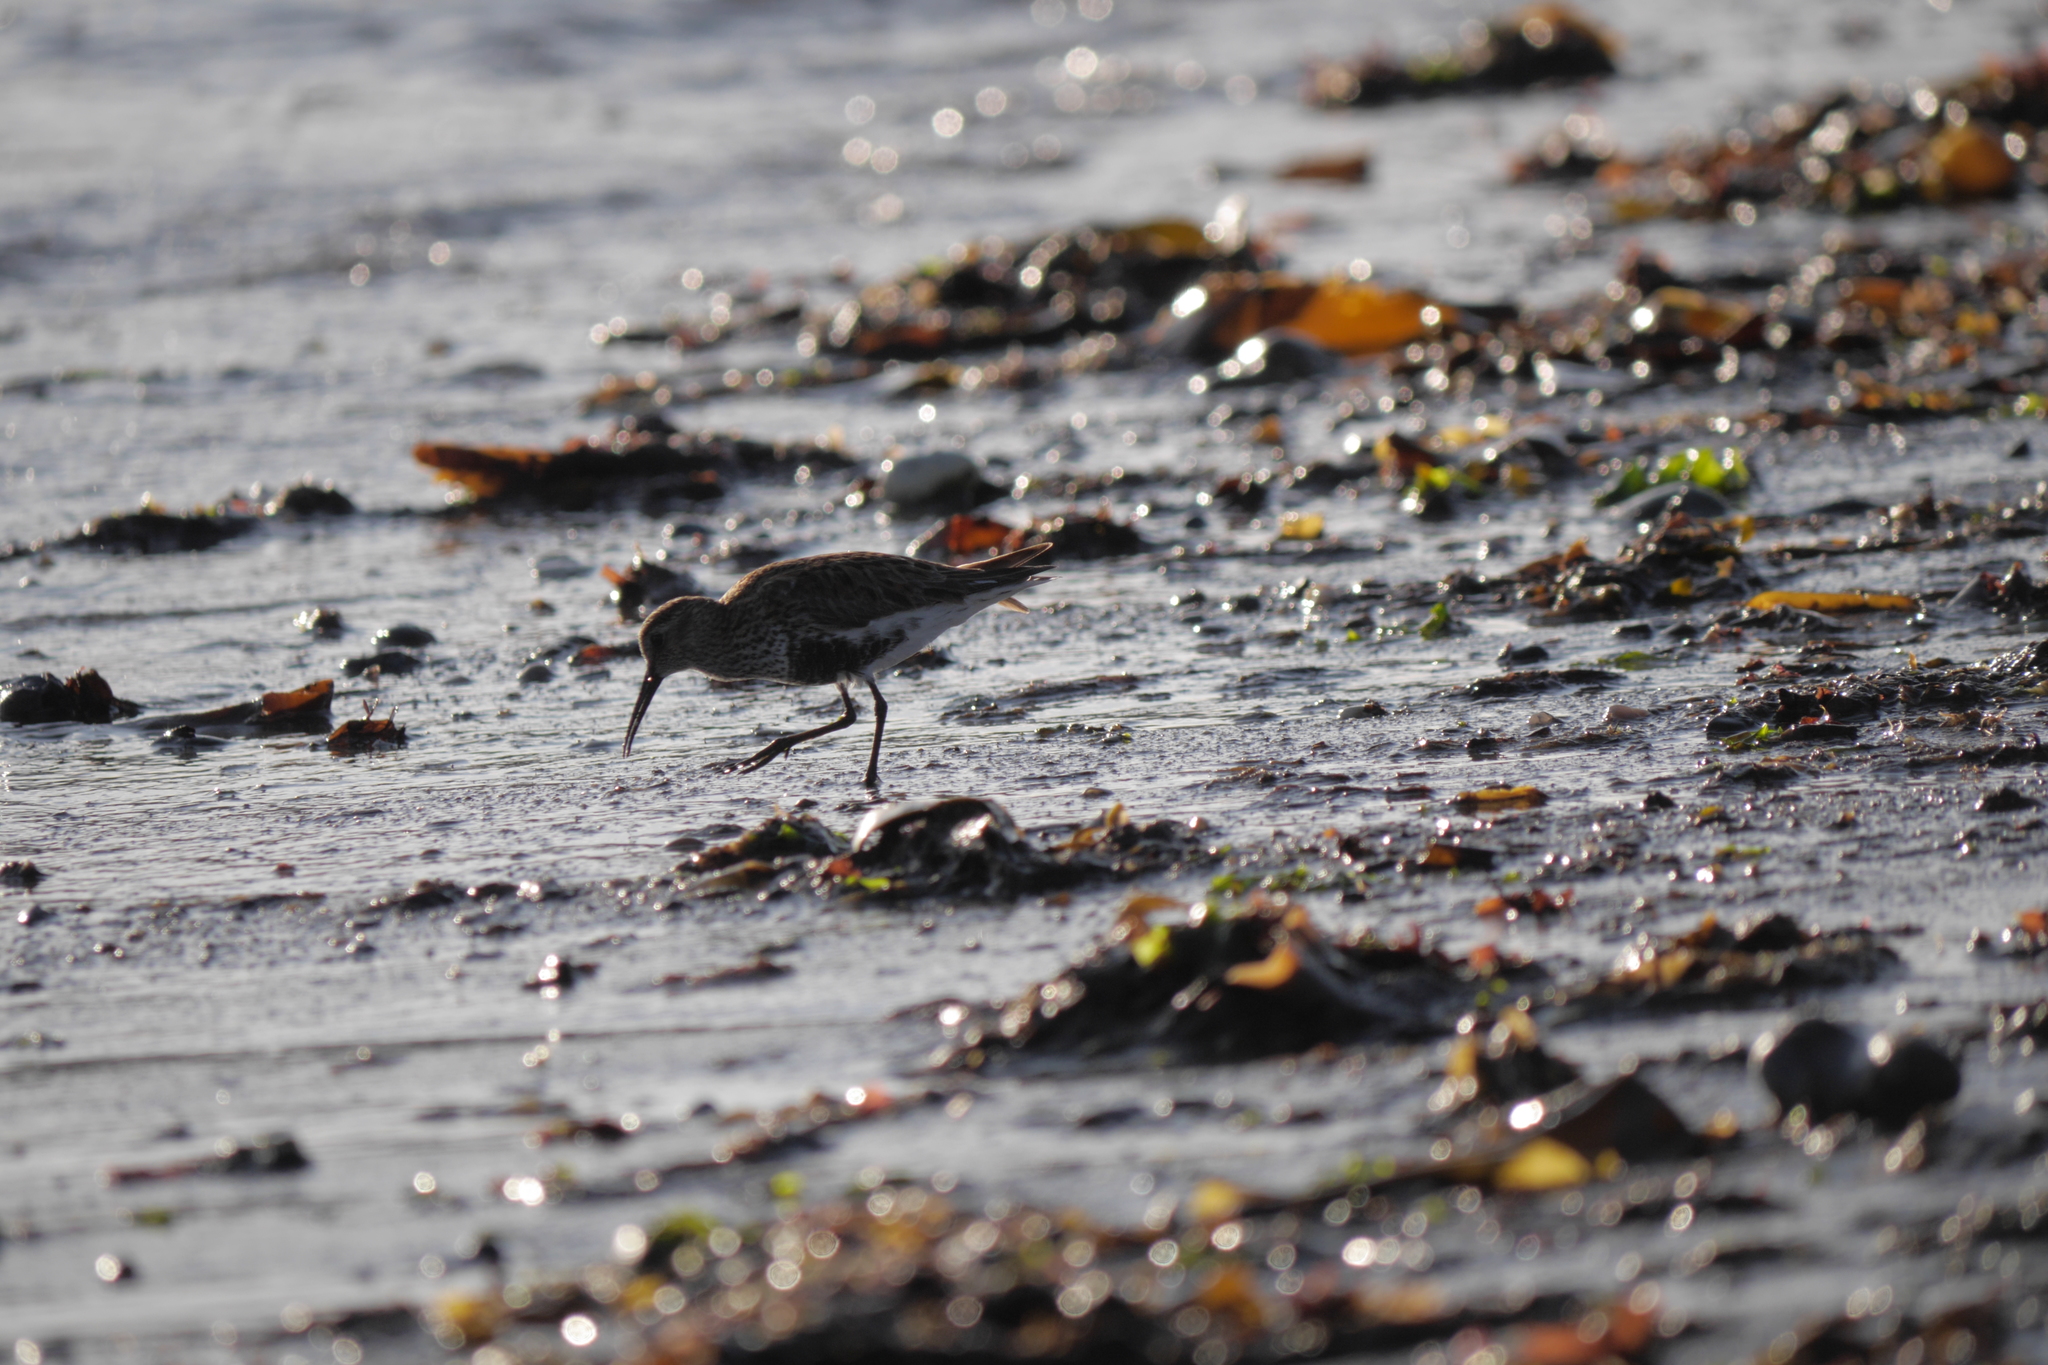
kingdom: Animalia
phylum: Chordata
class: Aves
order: Charadriiformes
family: Scolopacidae
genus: Calidris
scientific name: Calidris alpina
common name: Dunlin
